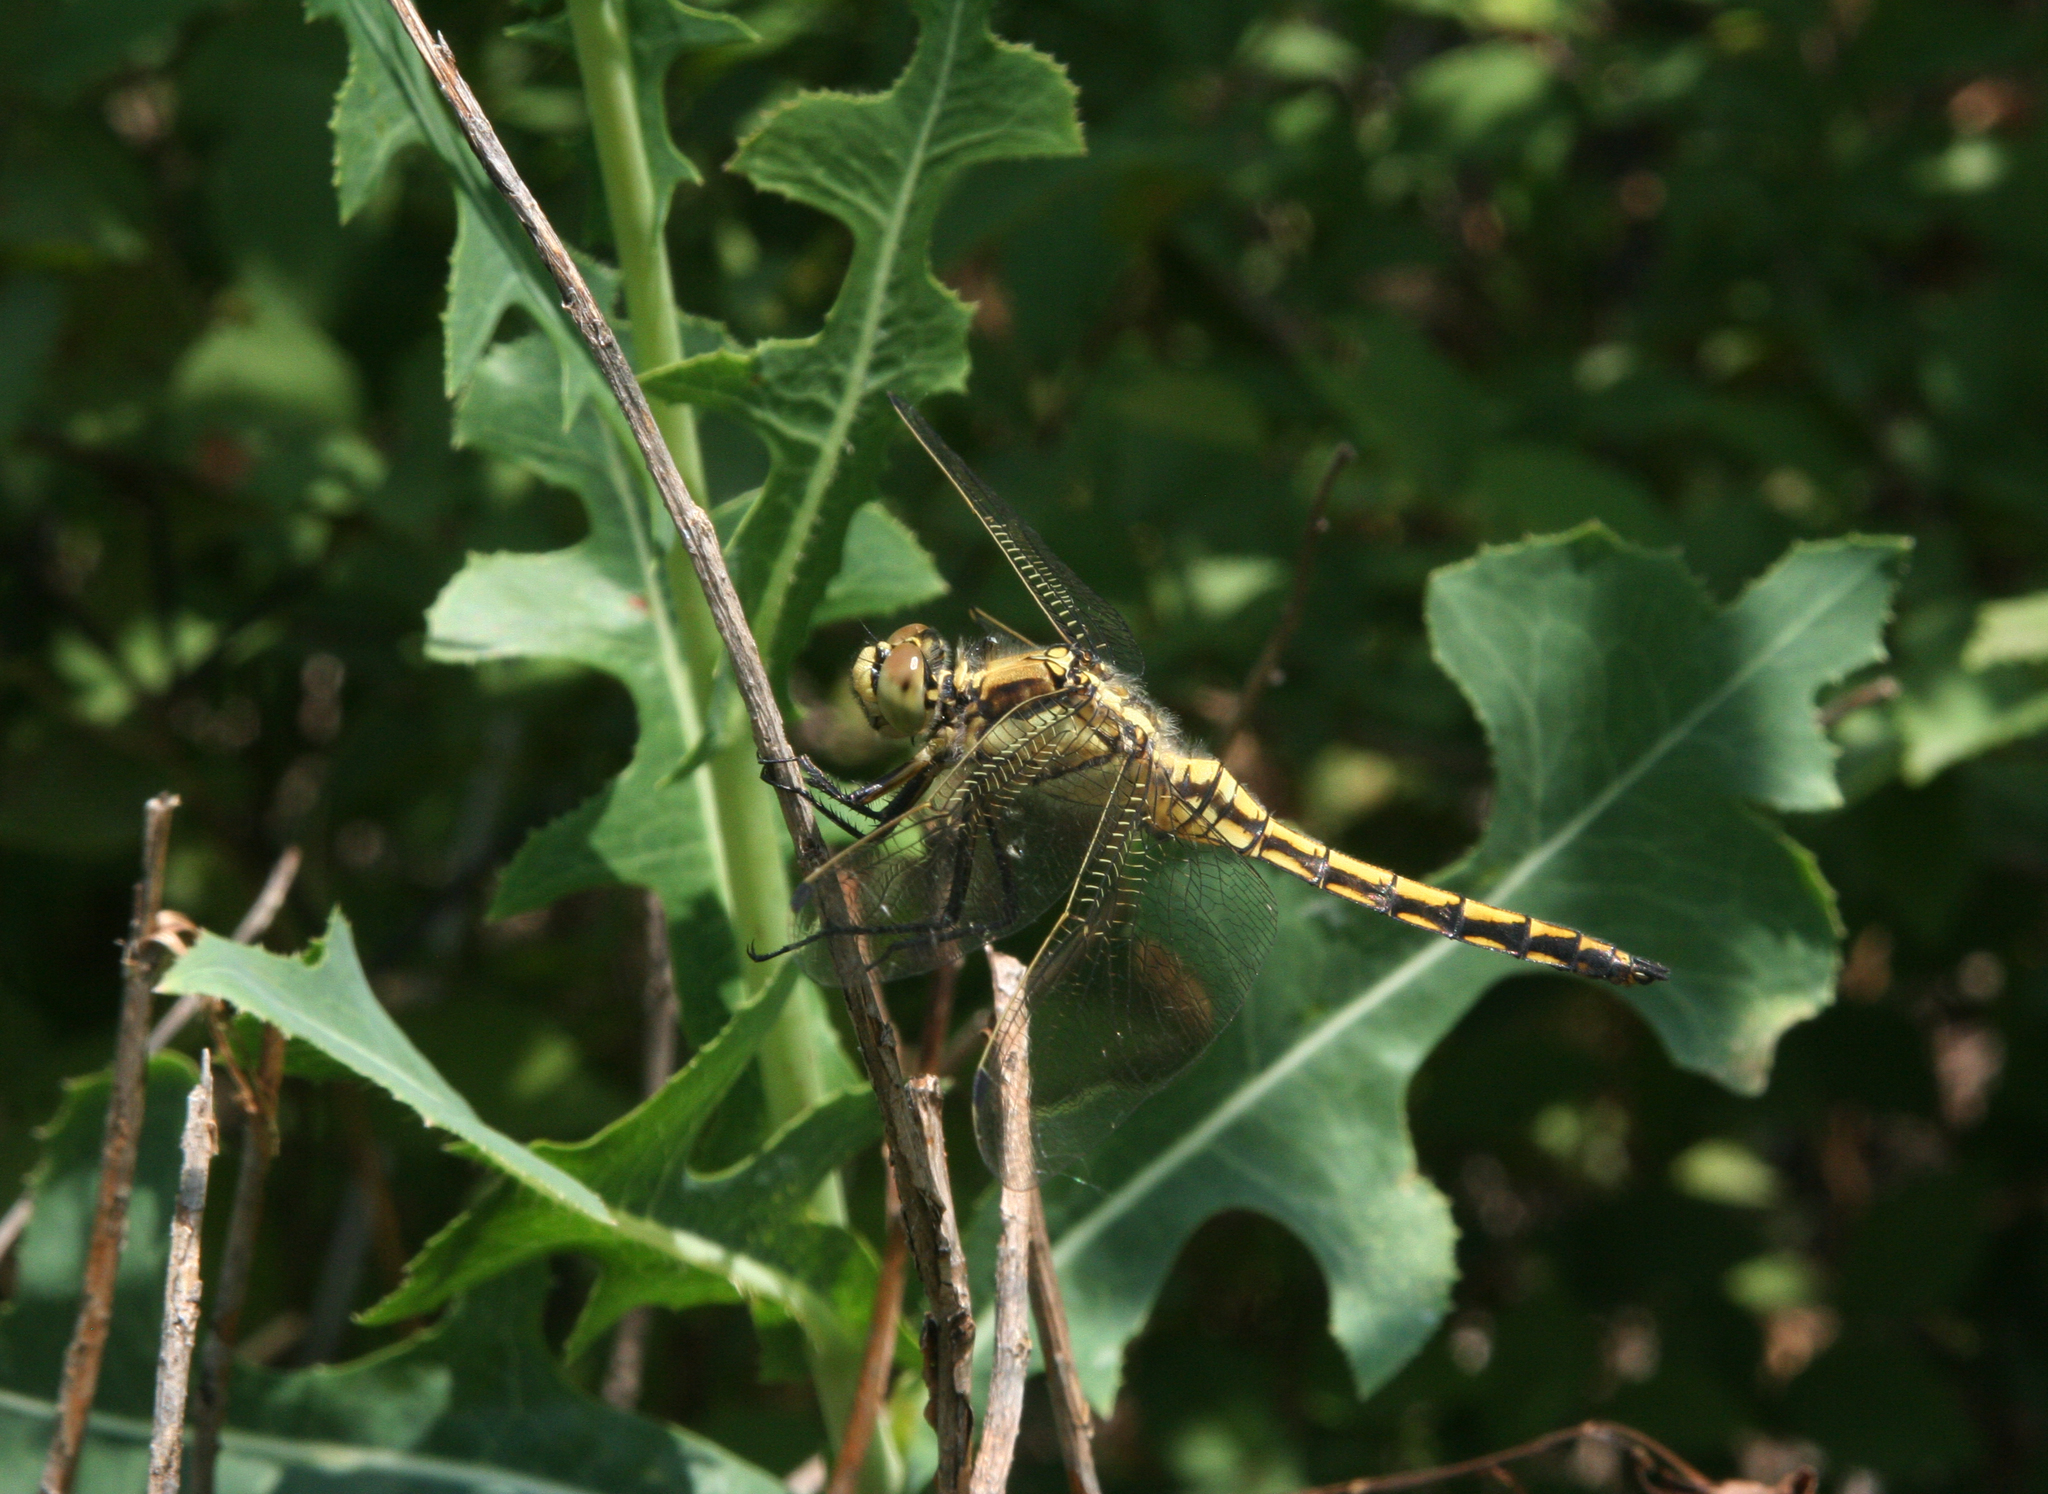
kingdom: Animalia
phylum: Arthropoda
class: Insecta
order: Odonata
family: Libellulidae
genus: Orthetrum
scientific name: Orthetrum cancellatum
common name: Black-tailed skimmer
